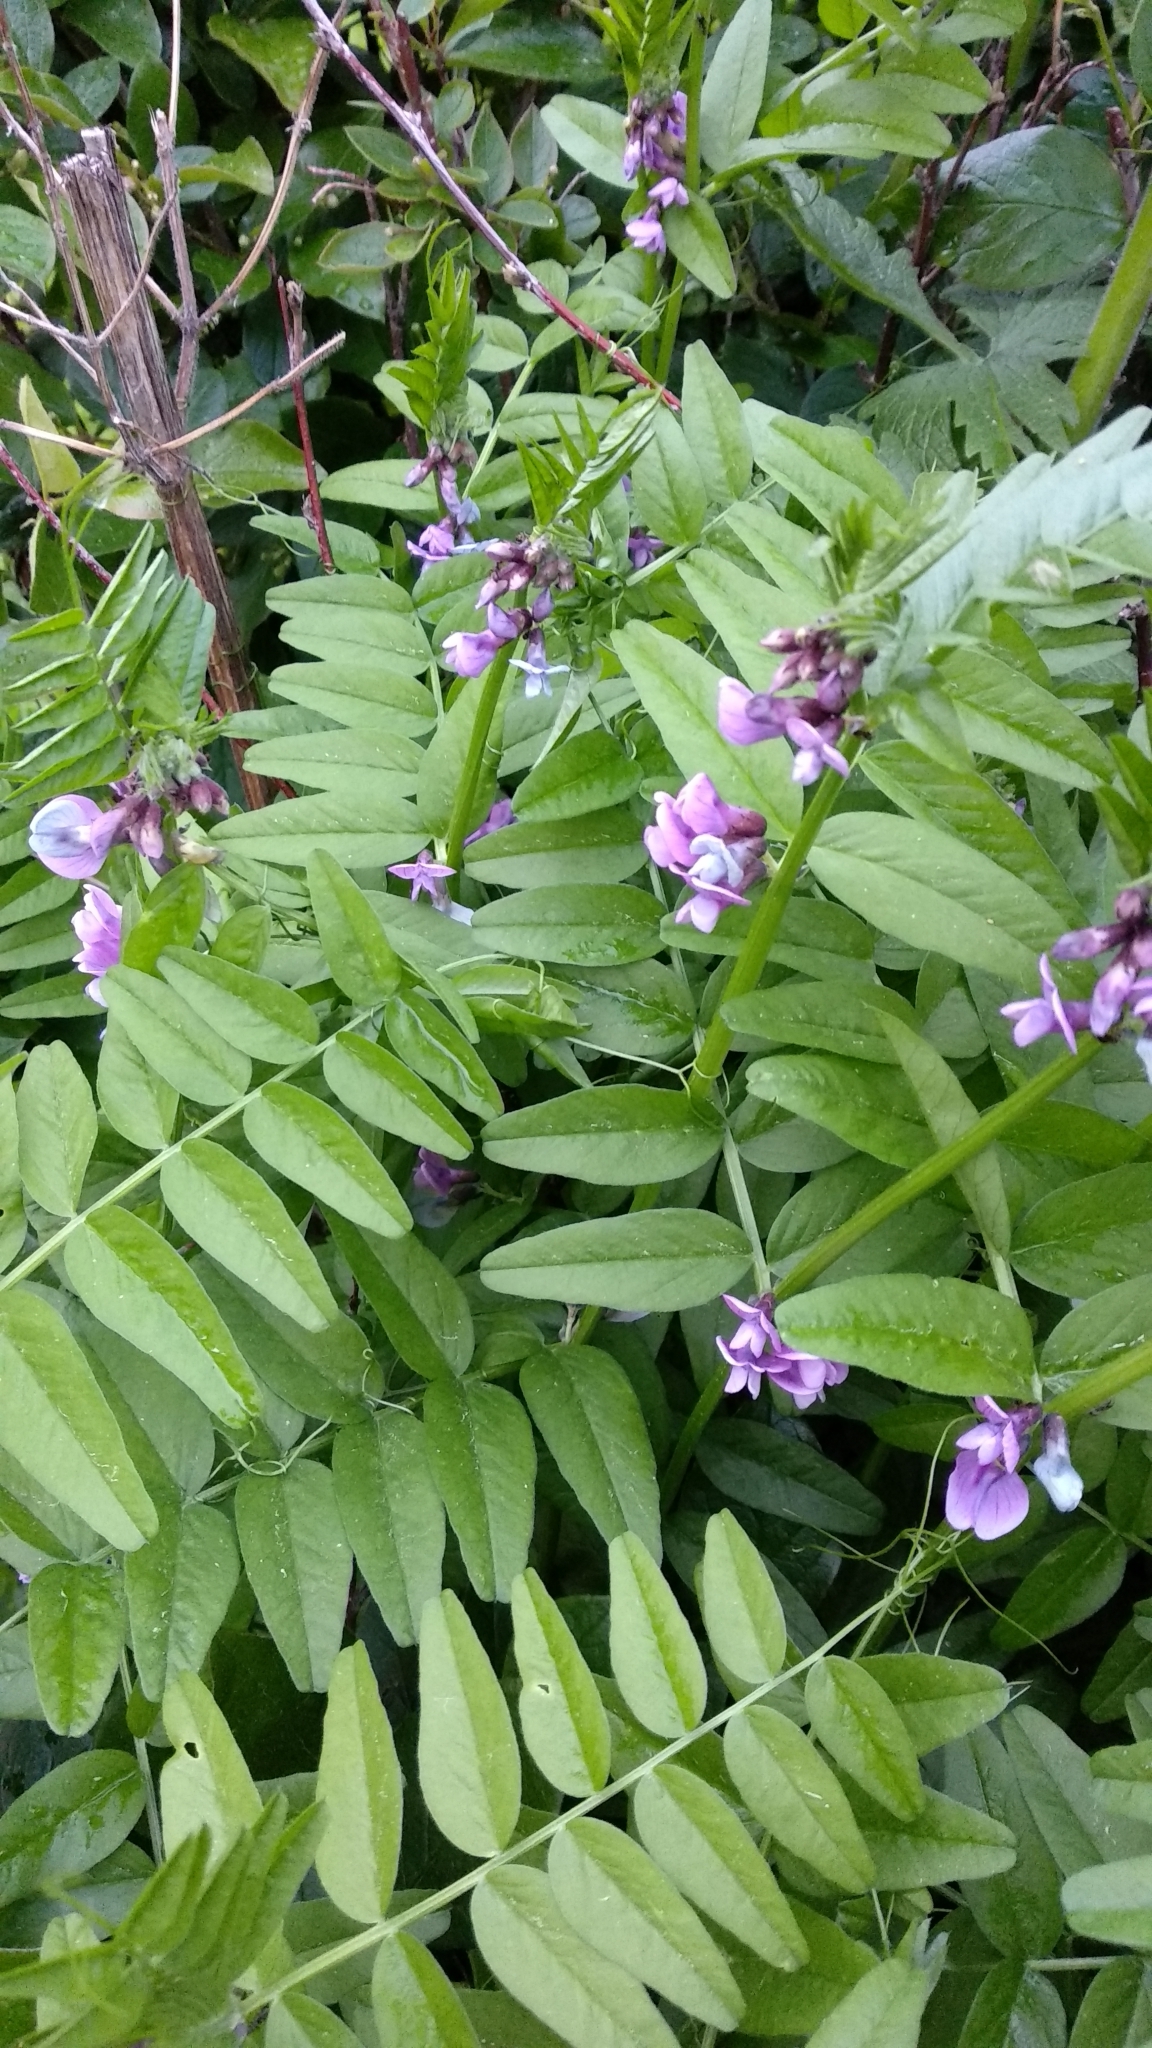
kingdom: Plantae
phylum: Tracheophyta
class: Magnoliopsida
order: Fabales
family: Fabaceae
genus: Vicia
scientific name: Vicia sepium
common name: Bush vetch
